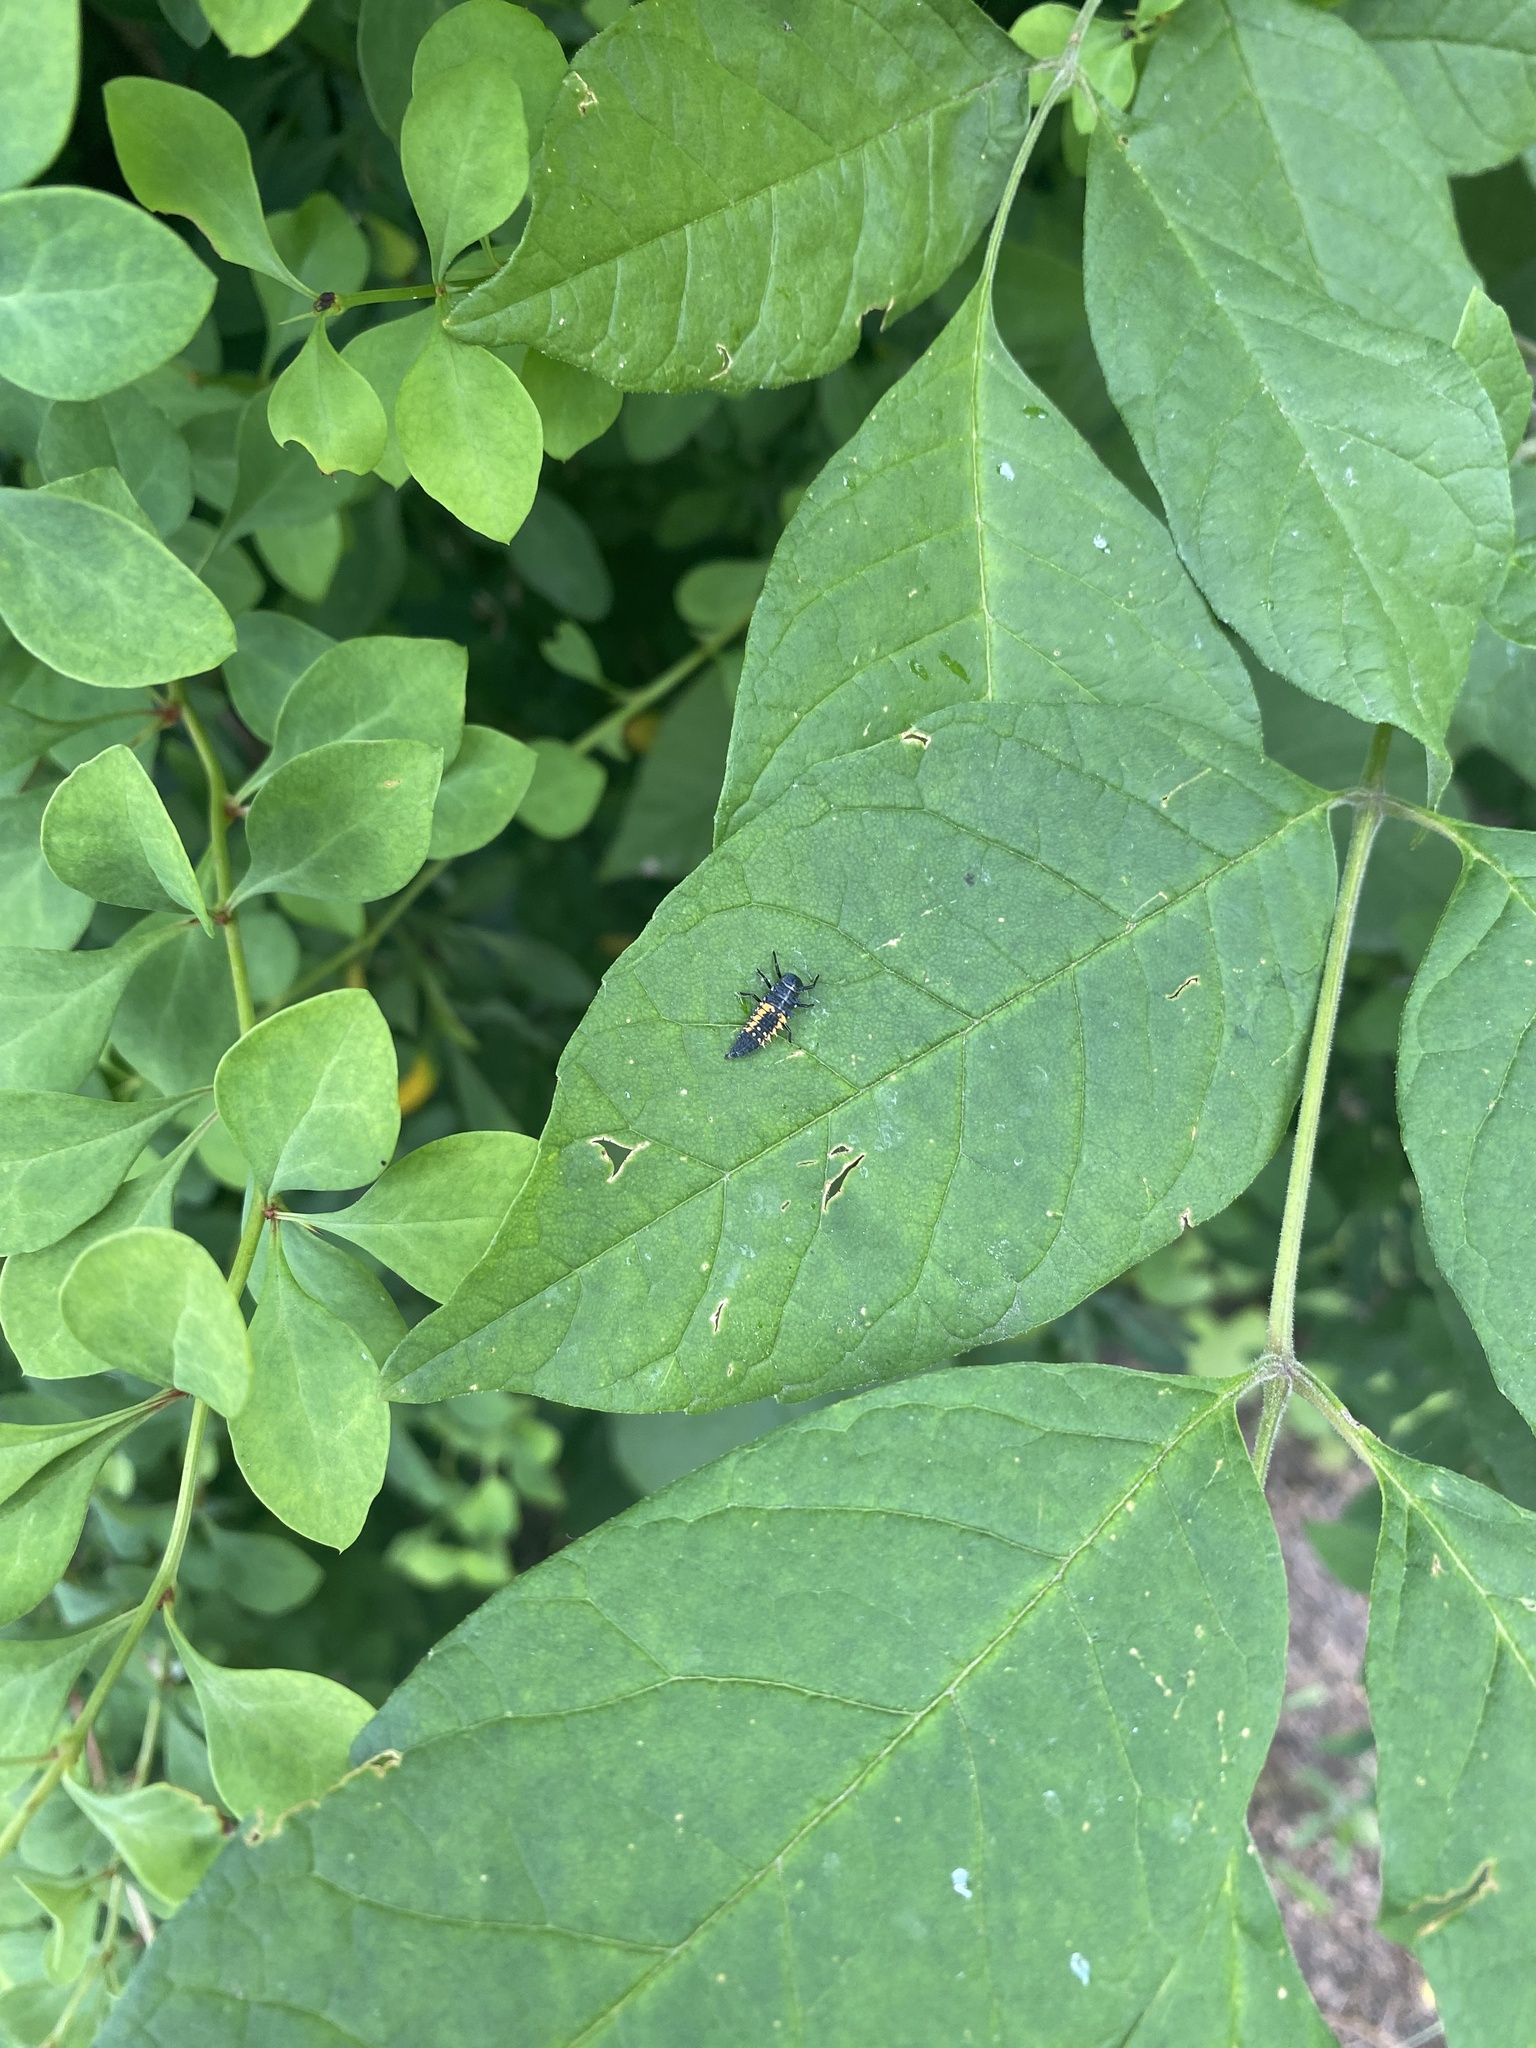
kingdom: Animalia
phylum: Arthropoda
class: Insecta
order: Coleoptera
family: Coccinellidae
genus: Harmonia
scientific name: Harmonia axyridis
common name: Harlequin ladybird
